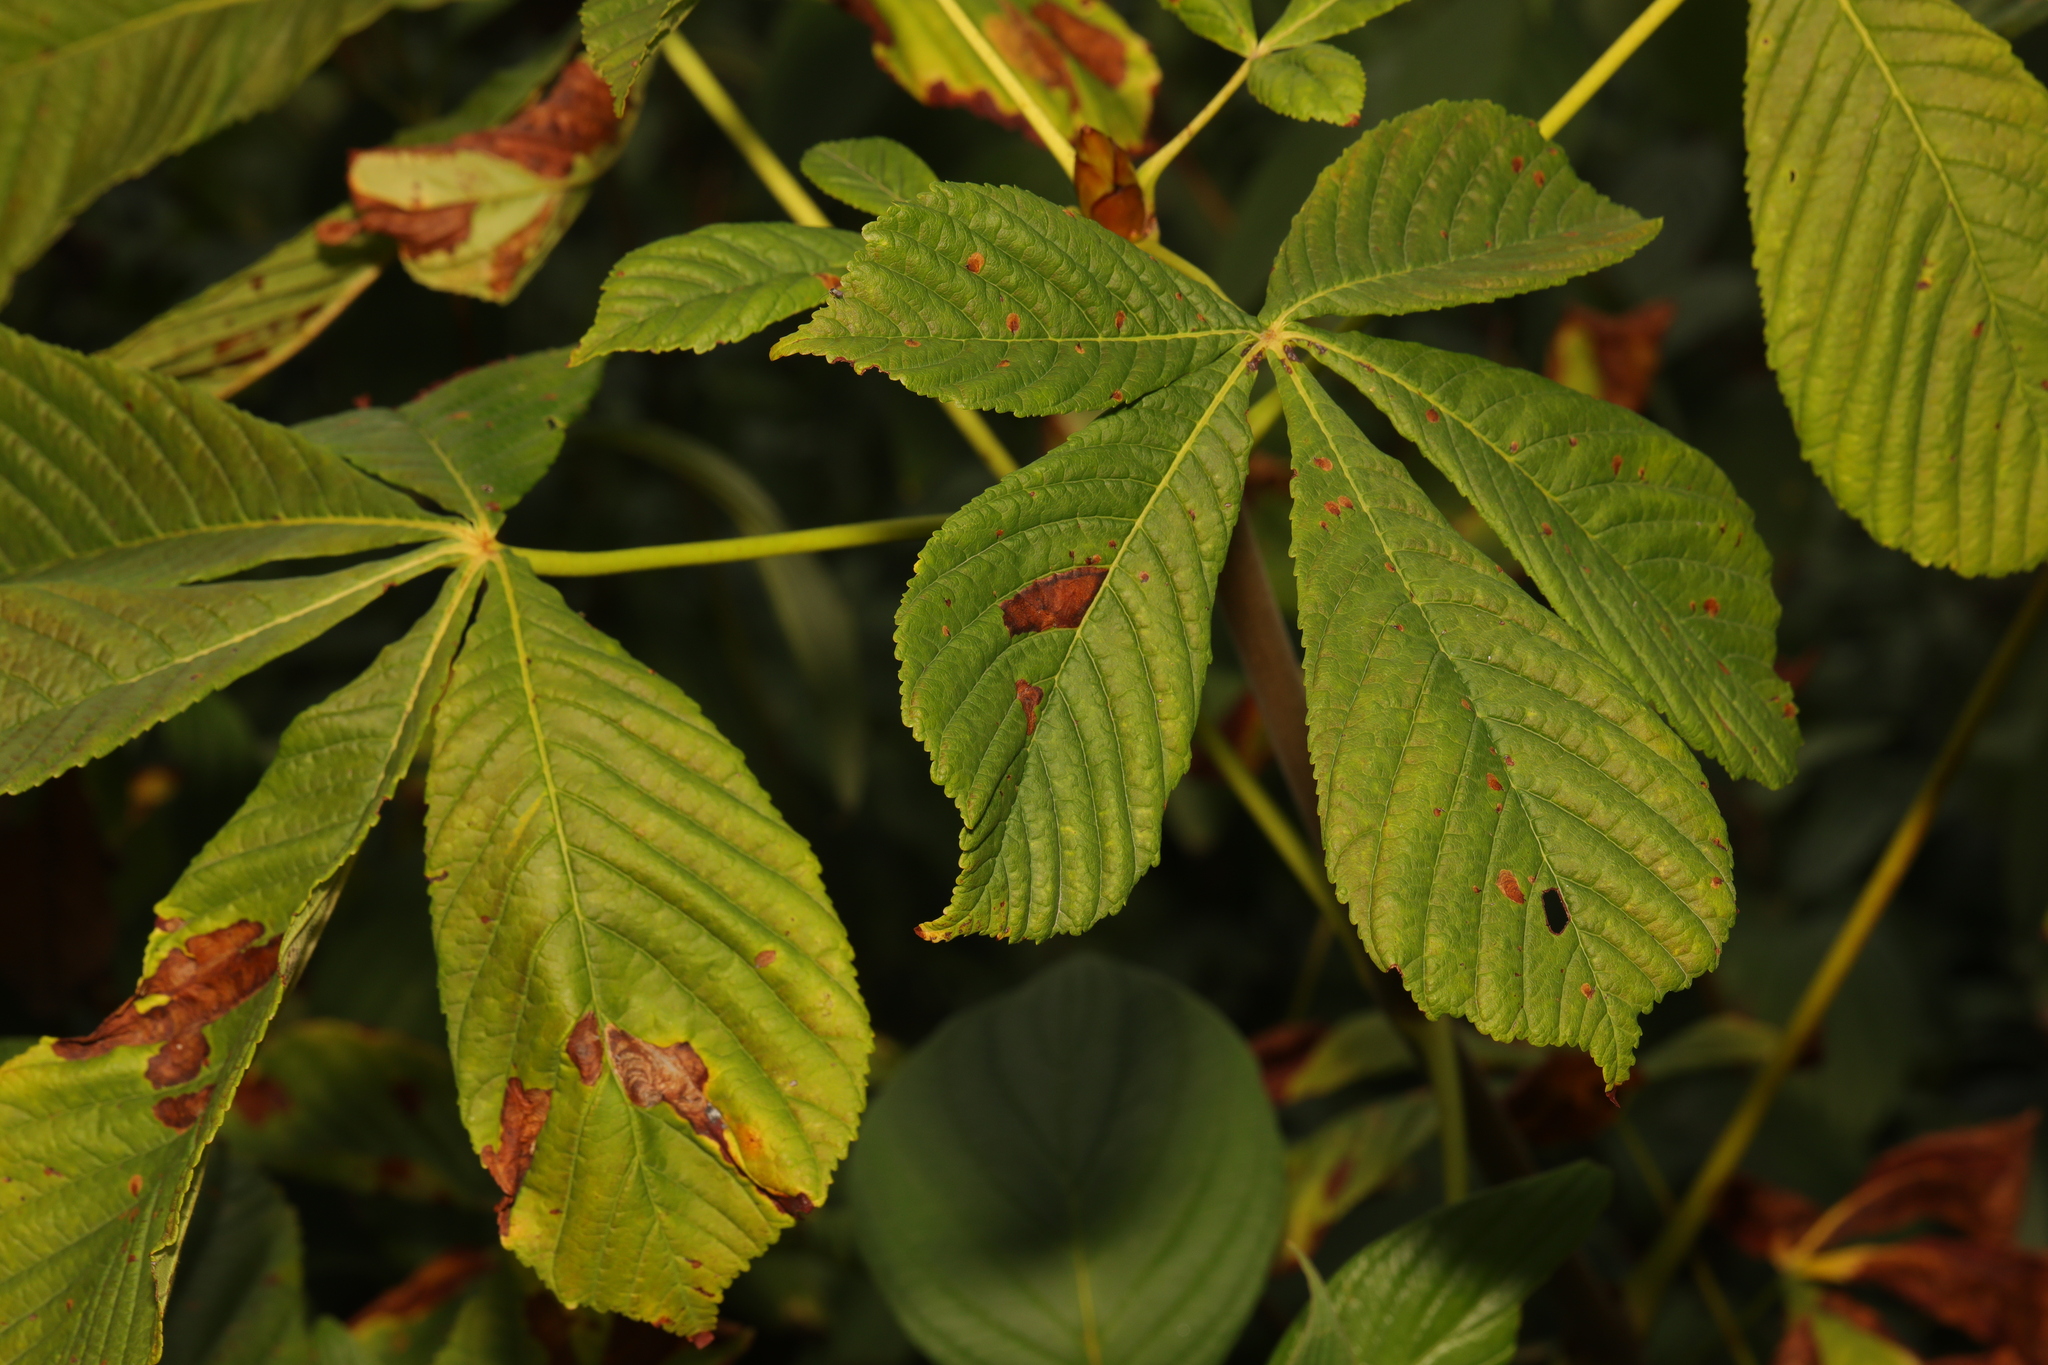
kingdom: Plantae
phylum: Tracheophyta
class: Magnoliopsida
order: Sapindales
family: Sapindaceae
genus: Aesculus
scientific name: Aesculus hippocastanum
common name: Horse-chestnut
